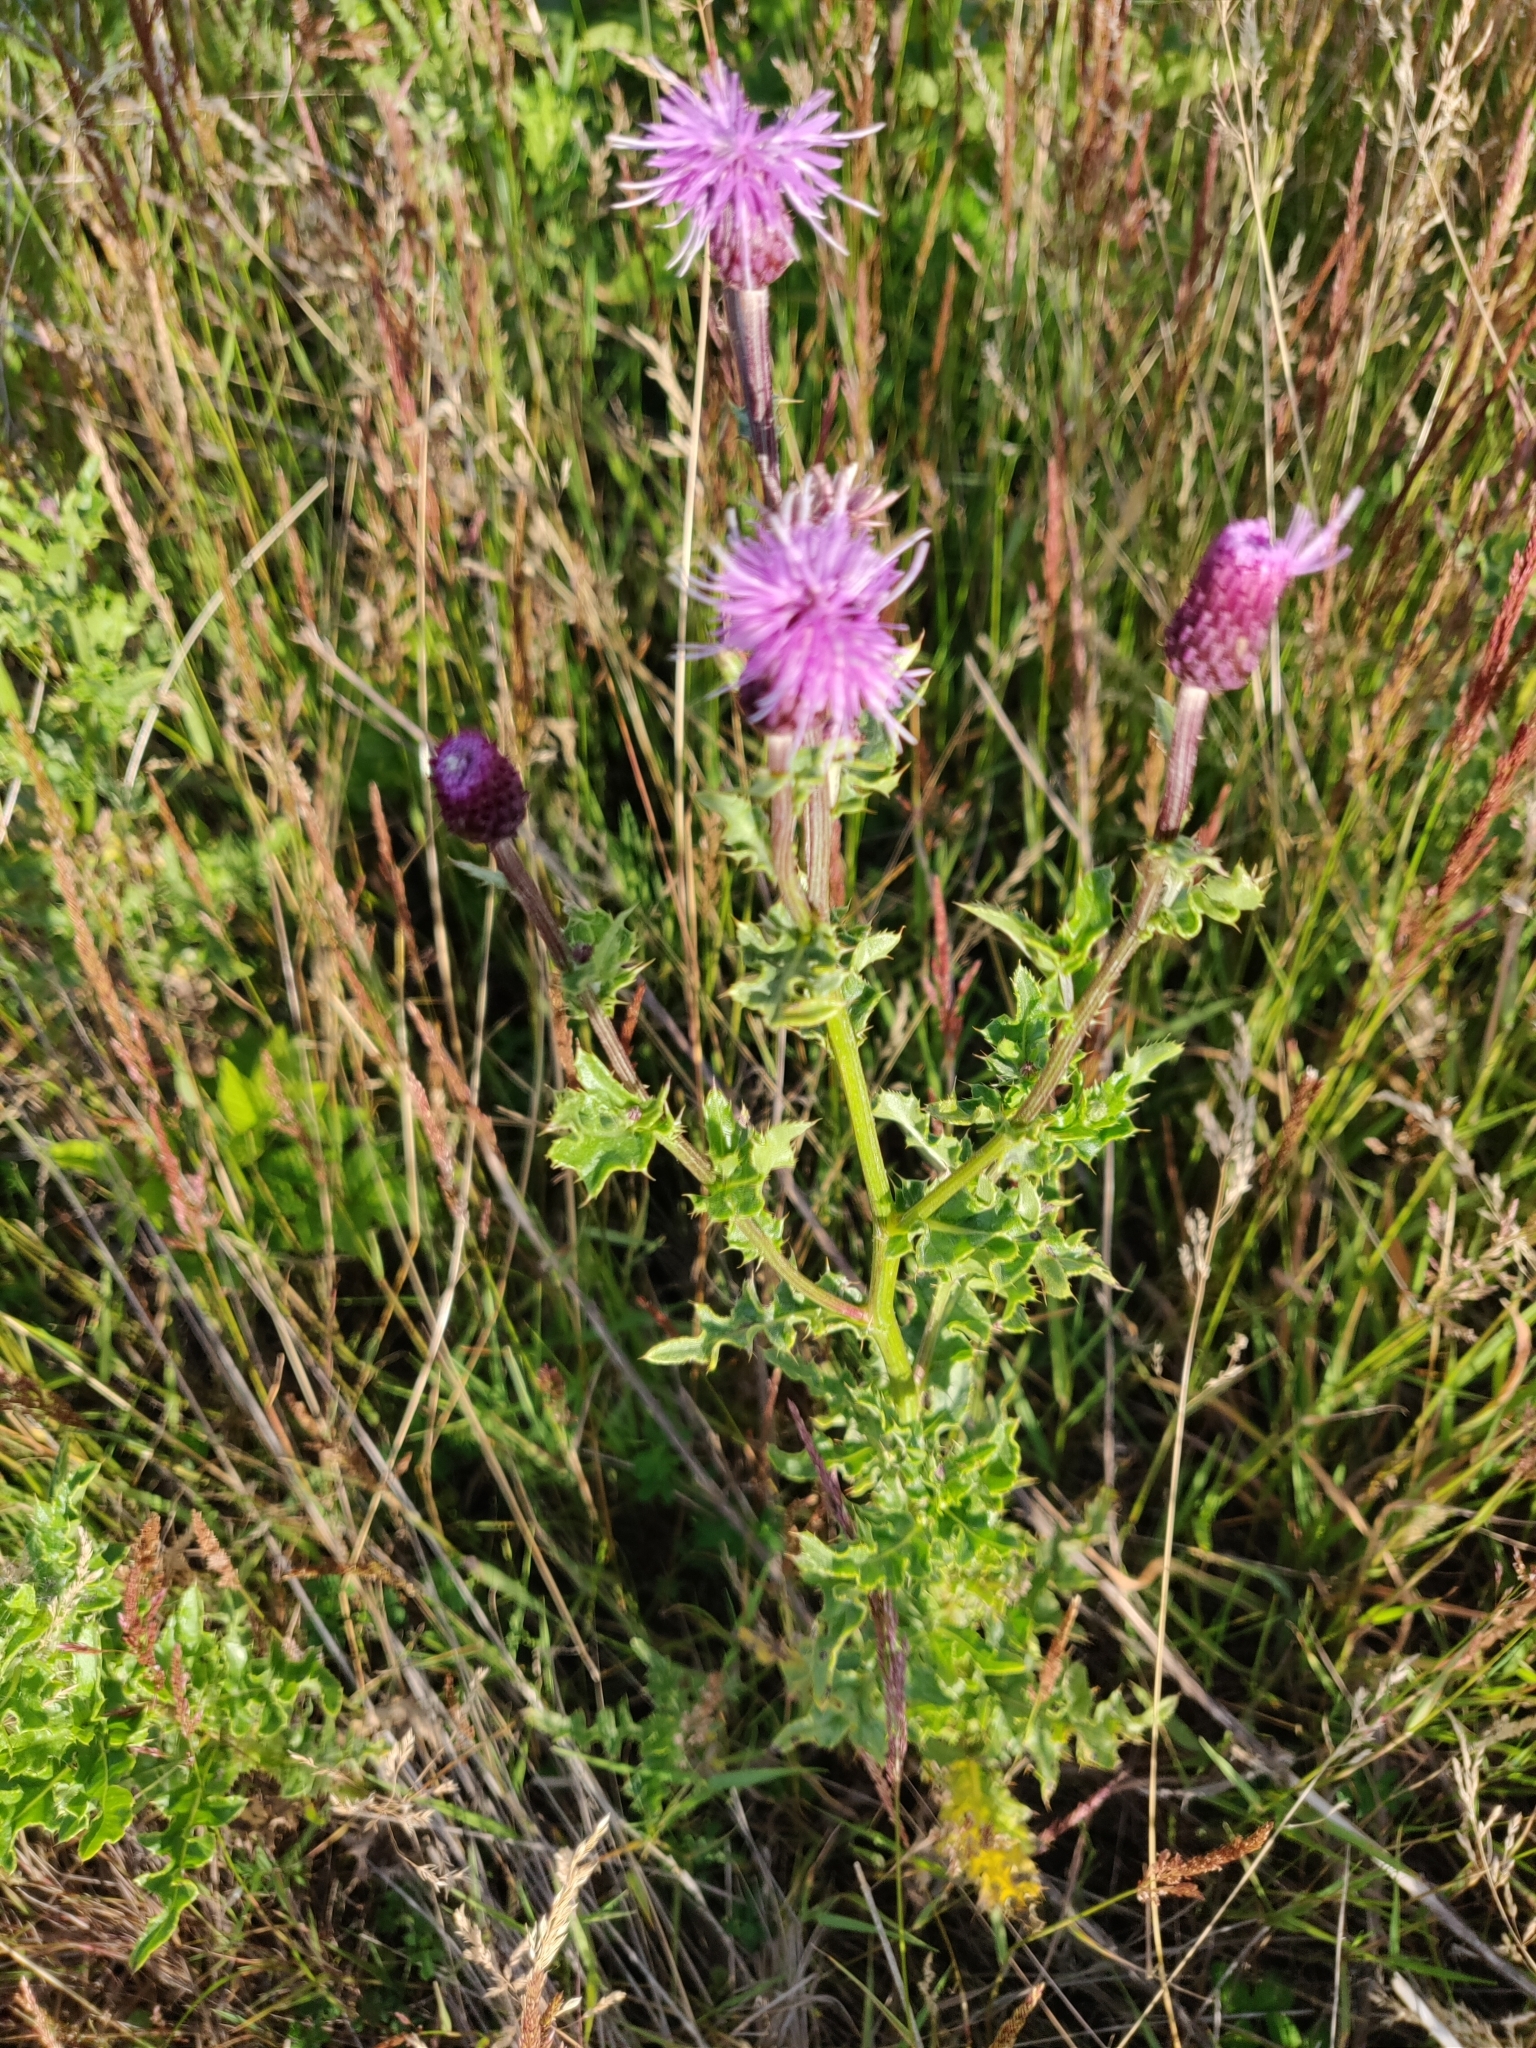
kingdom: Plantae
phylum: Tracheophyta
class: Magnoliopsida
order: Asterales
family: Asteraceae
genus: Cirsium
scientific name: Cirsium arvense
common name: Creeping thistle
